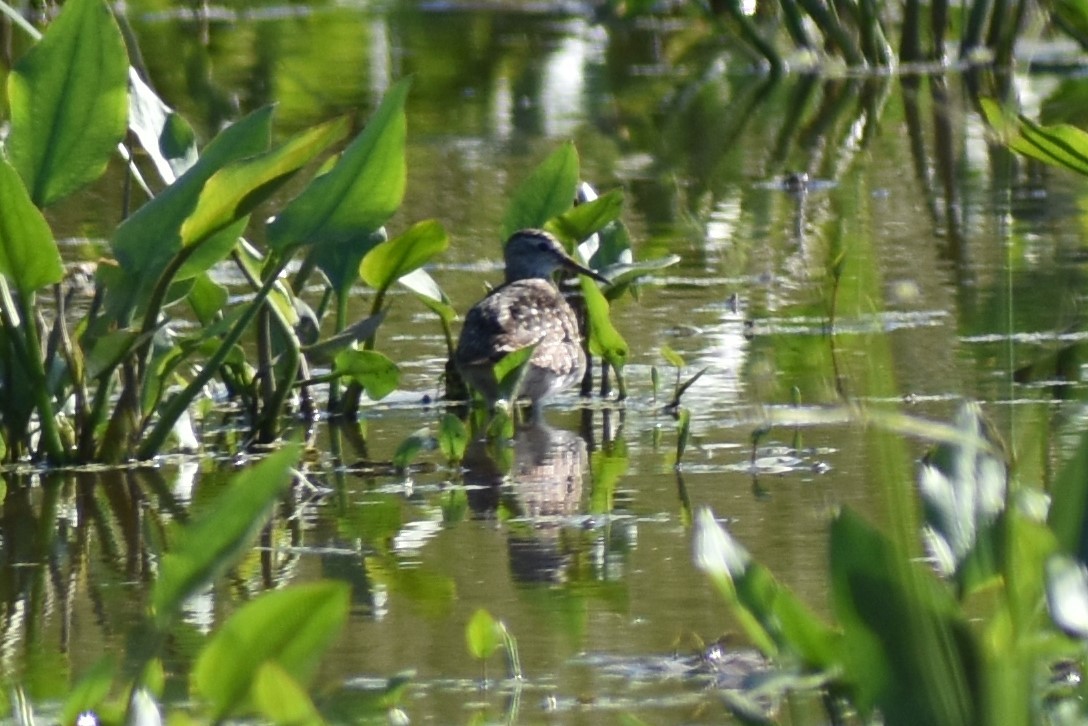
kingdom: Animalia
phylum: Chordata
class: Aves
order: Charadriiformes
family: Scolopacidae
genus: Tringa
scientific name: Tringa glareola
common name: Wood sandpiper
